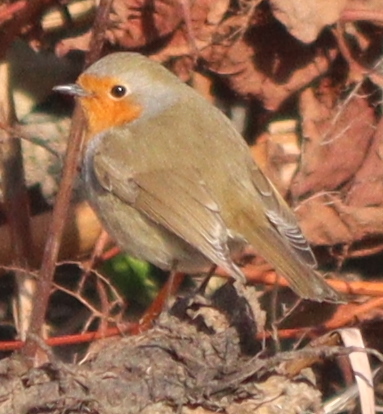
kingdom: Animalia
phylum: Chordata
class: Aves
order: Passeriformes
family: Muscicapidae
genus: Erithacus
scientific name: Erithacus rubecula
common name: European robin
